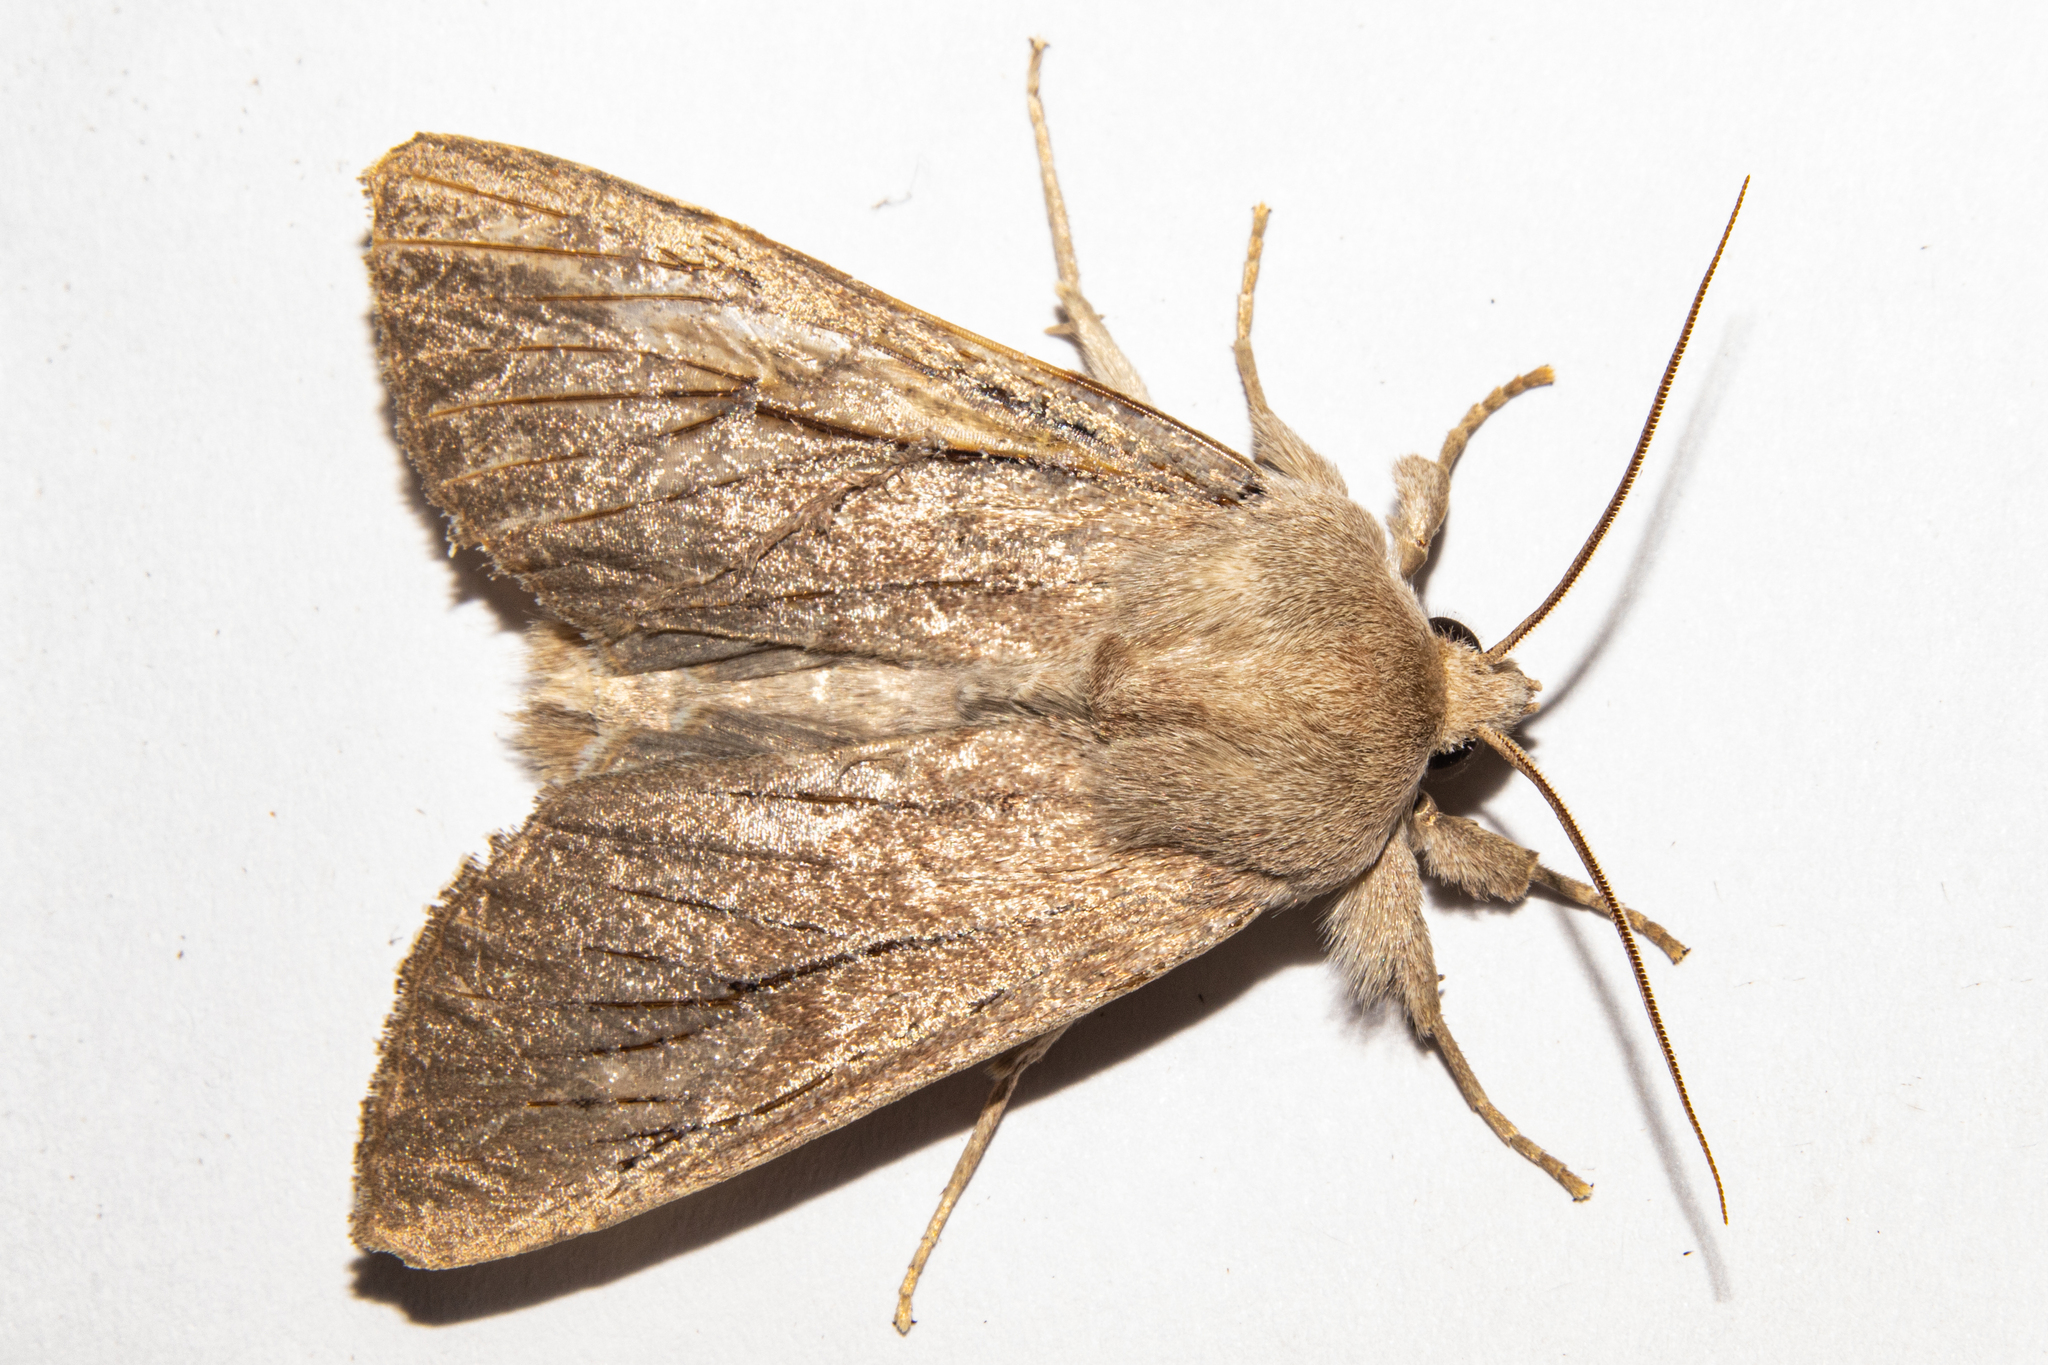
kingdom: Animalia
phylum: Arthropoda
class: Insecta
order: Lepidoptera
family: Noctuidae
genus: Ichneutica
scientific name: Ichneutica nullifera
